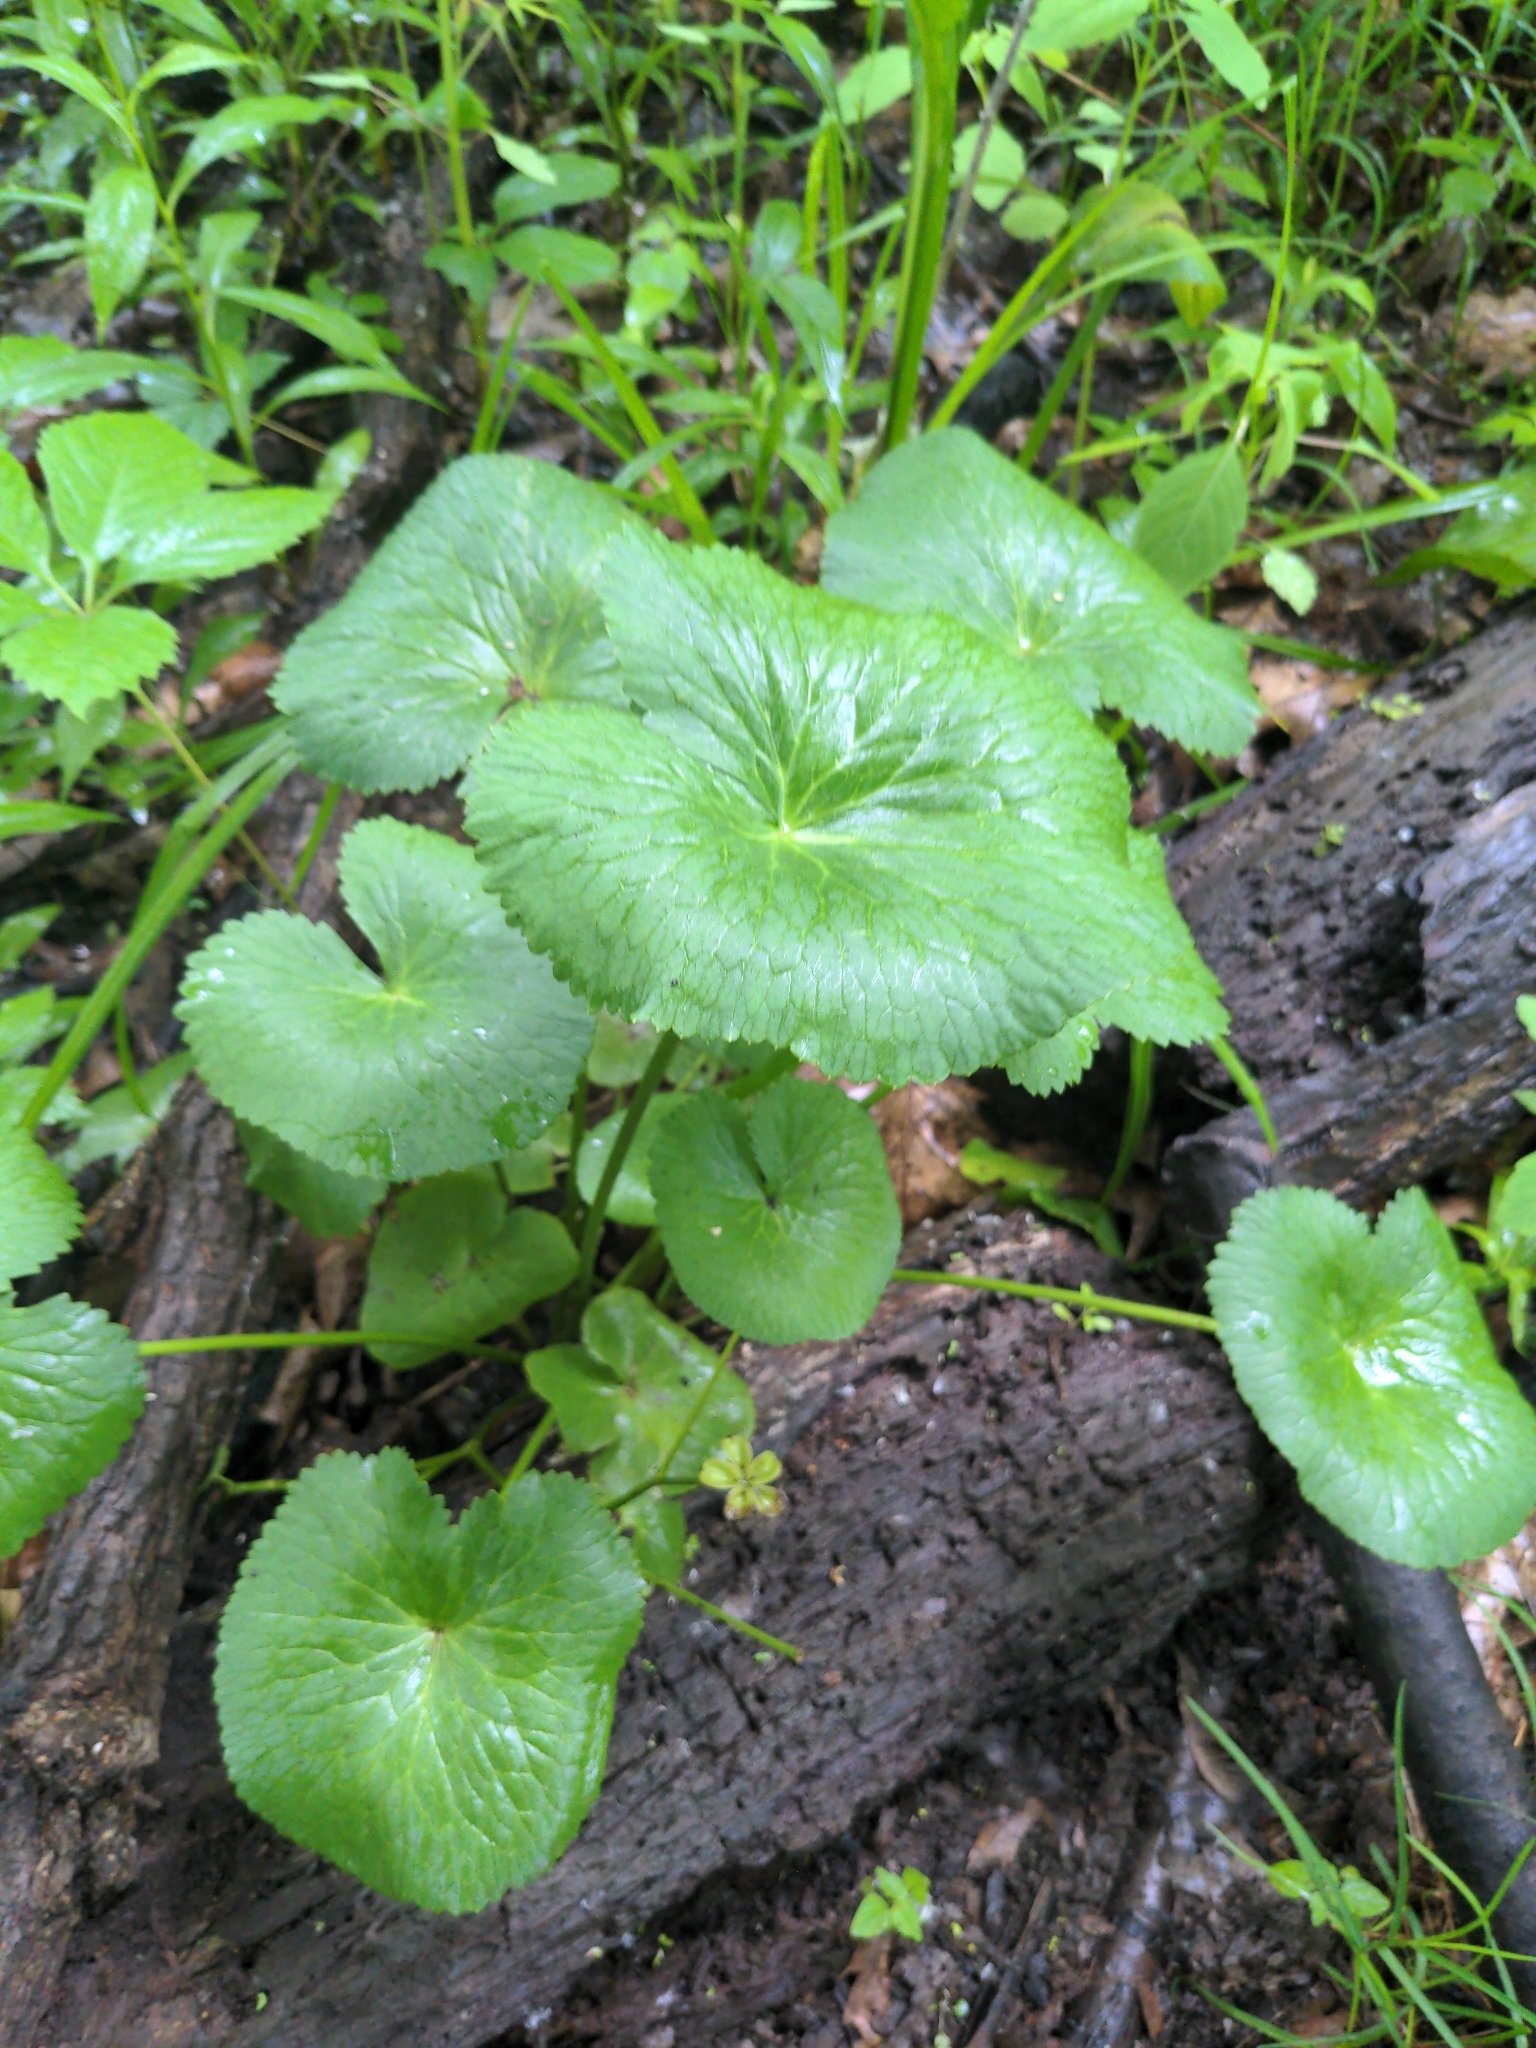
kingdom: Plantae
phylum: Tracheophyta
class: Magnoliopsida
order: Ranunculales
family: Ranunculaceae
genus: Caltha
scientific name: Caltha palustris
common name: Marsh marigold
